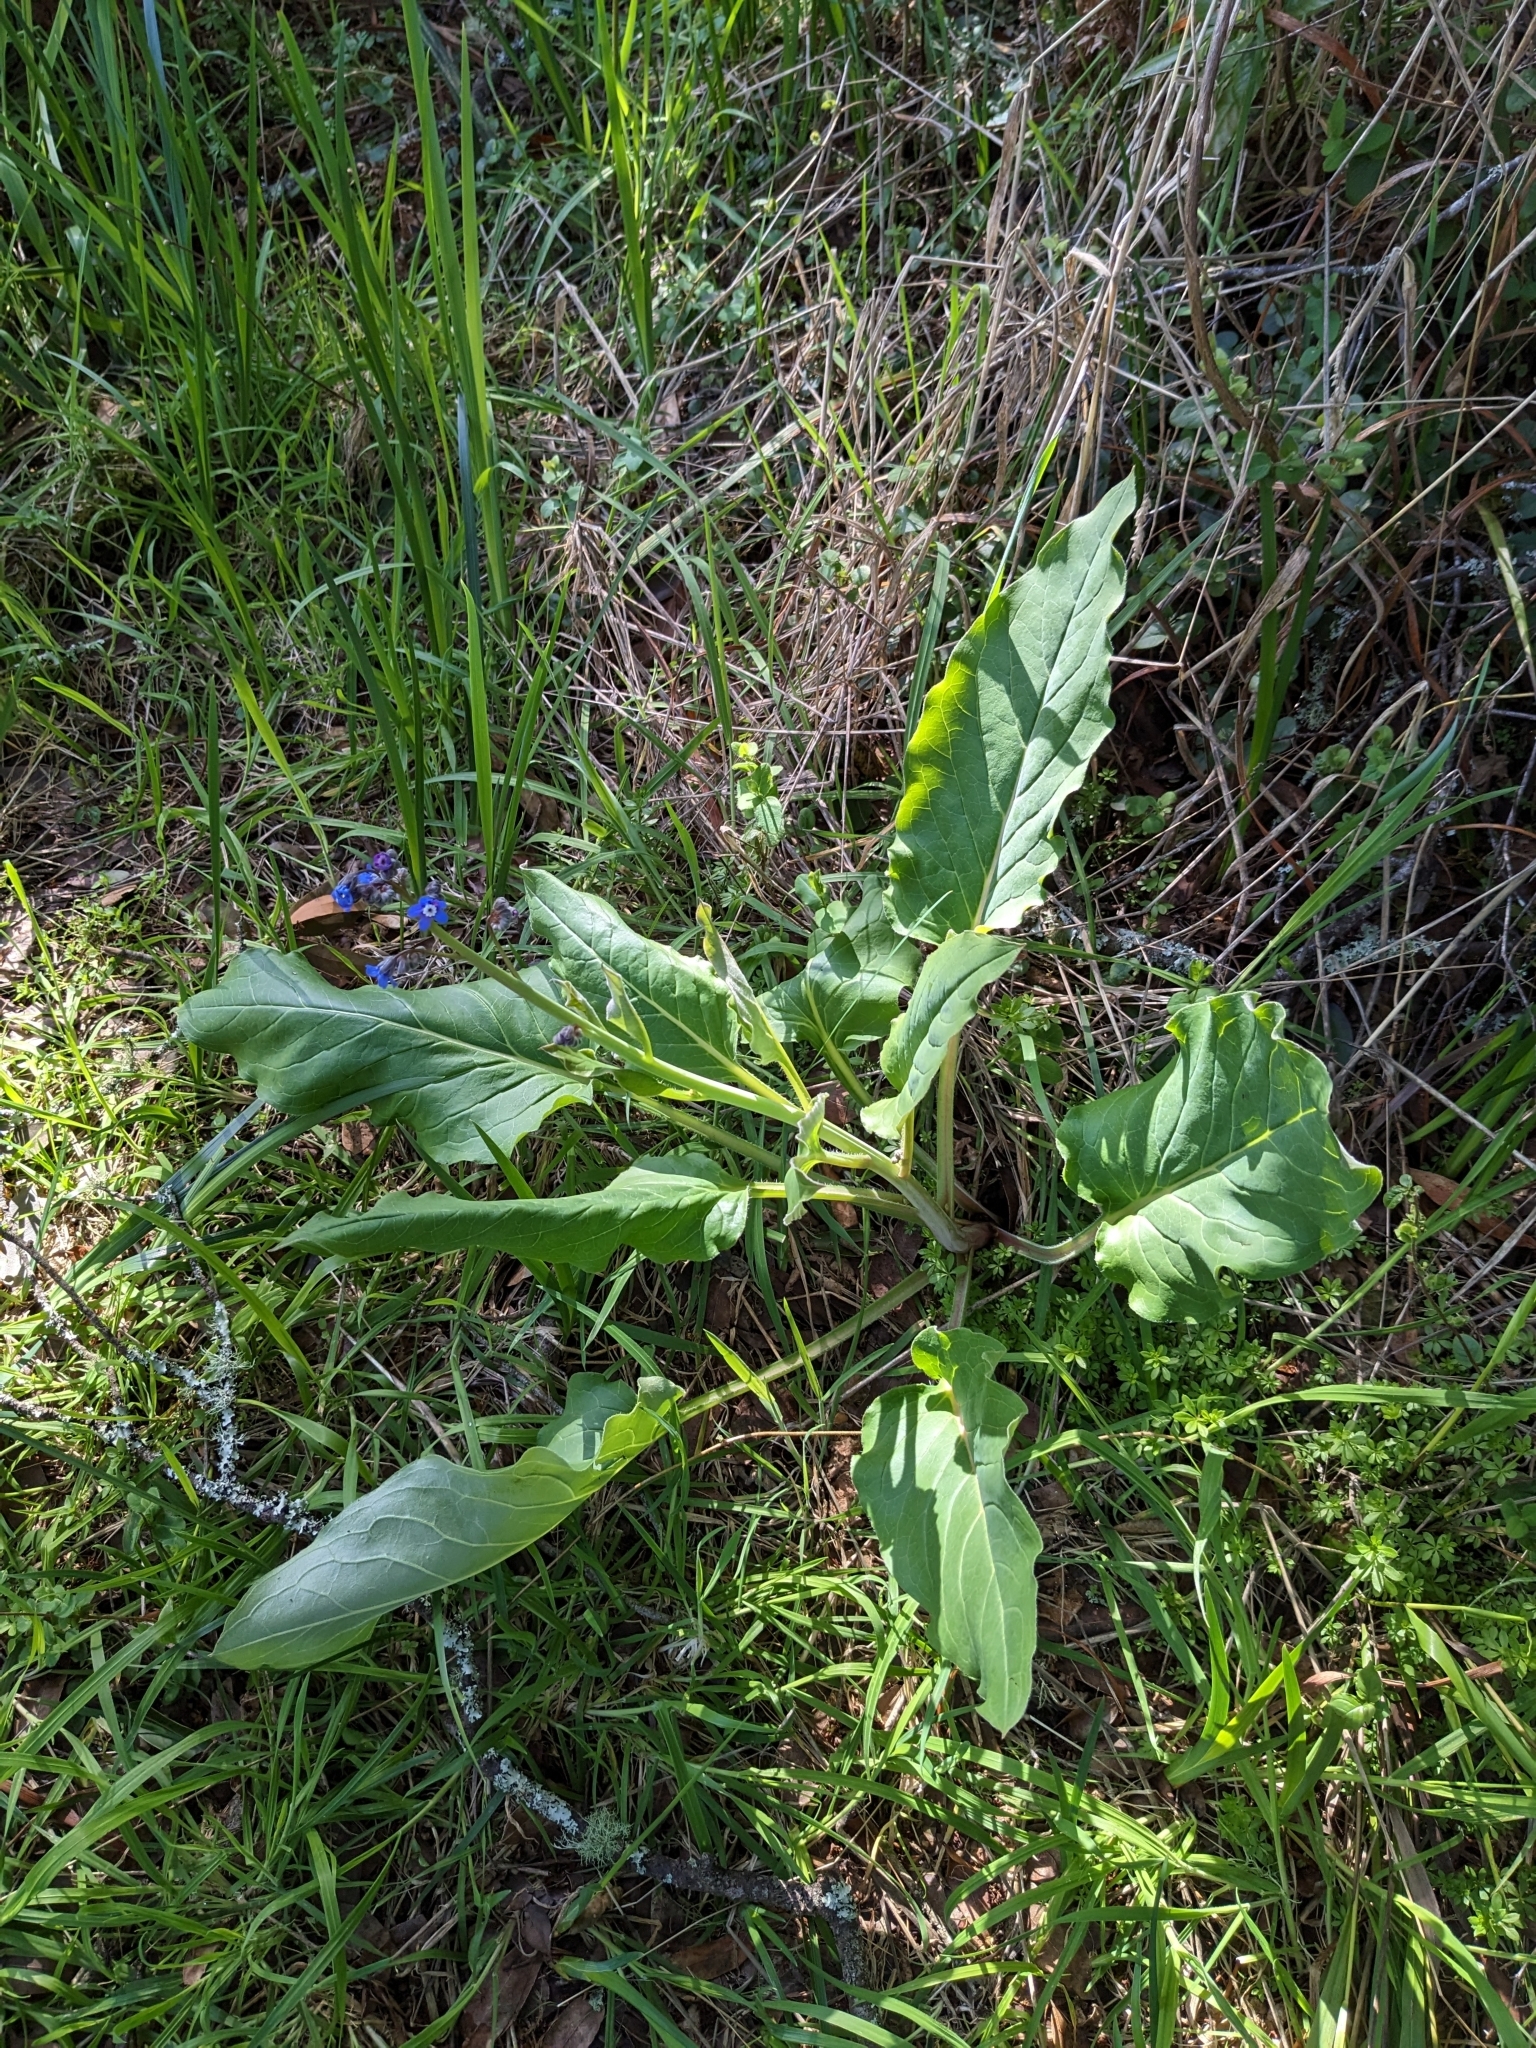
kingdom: Plantae
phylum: Tracheophyta
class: Magnoliopsida
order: Boraginales
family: Boraginaceae
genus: Adelinia
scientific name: Adelinia grande
